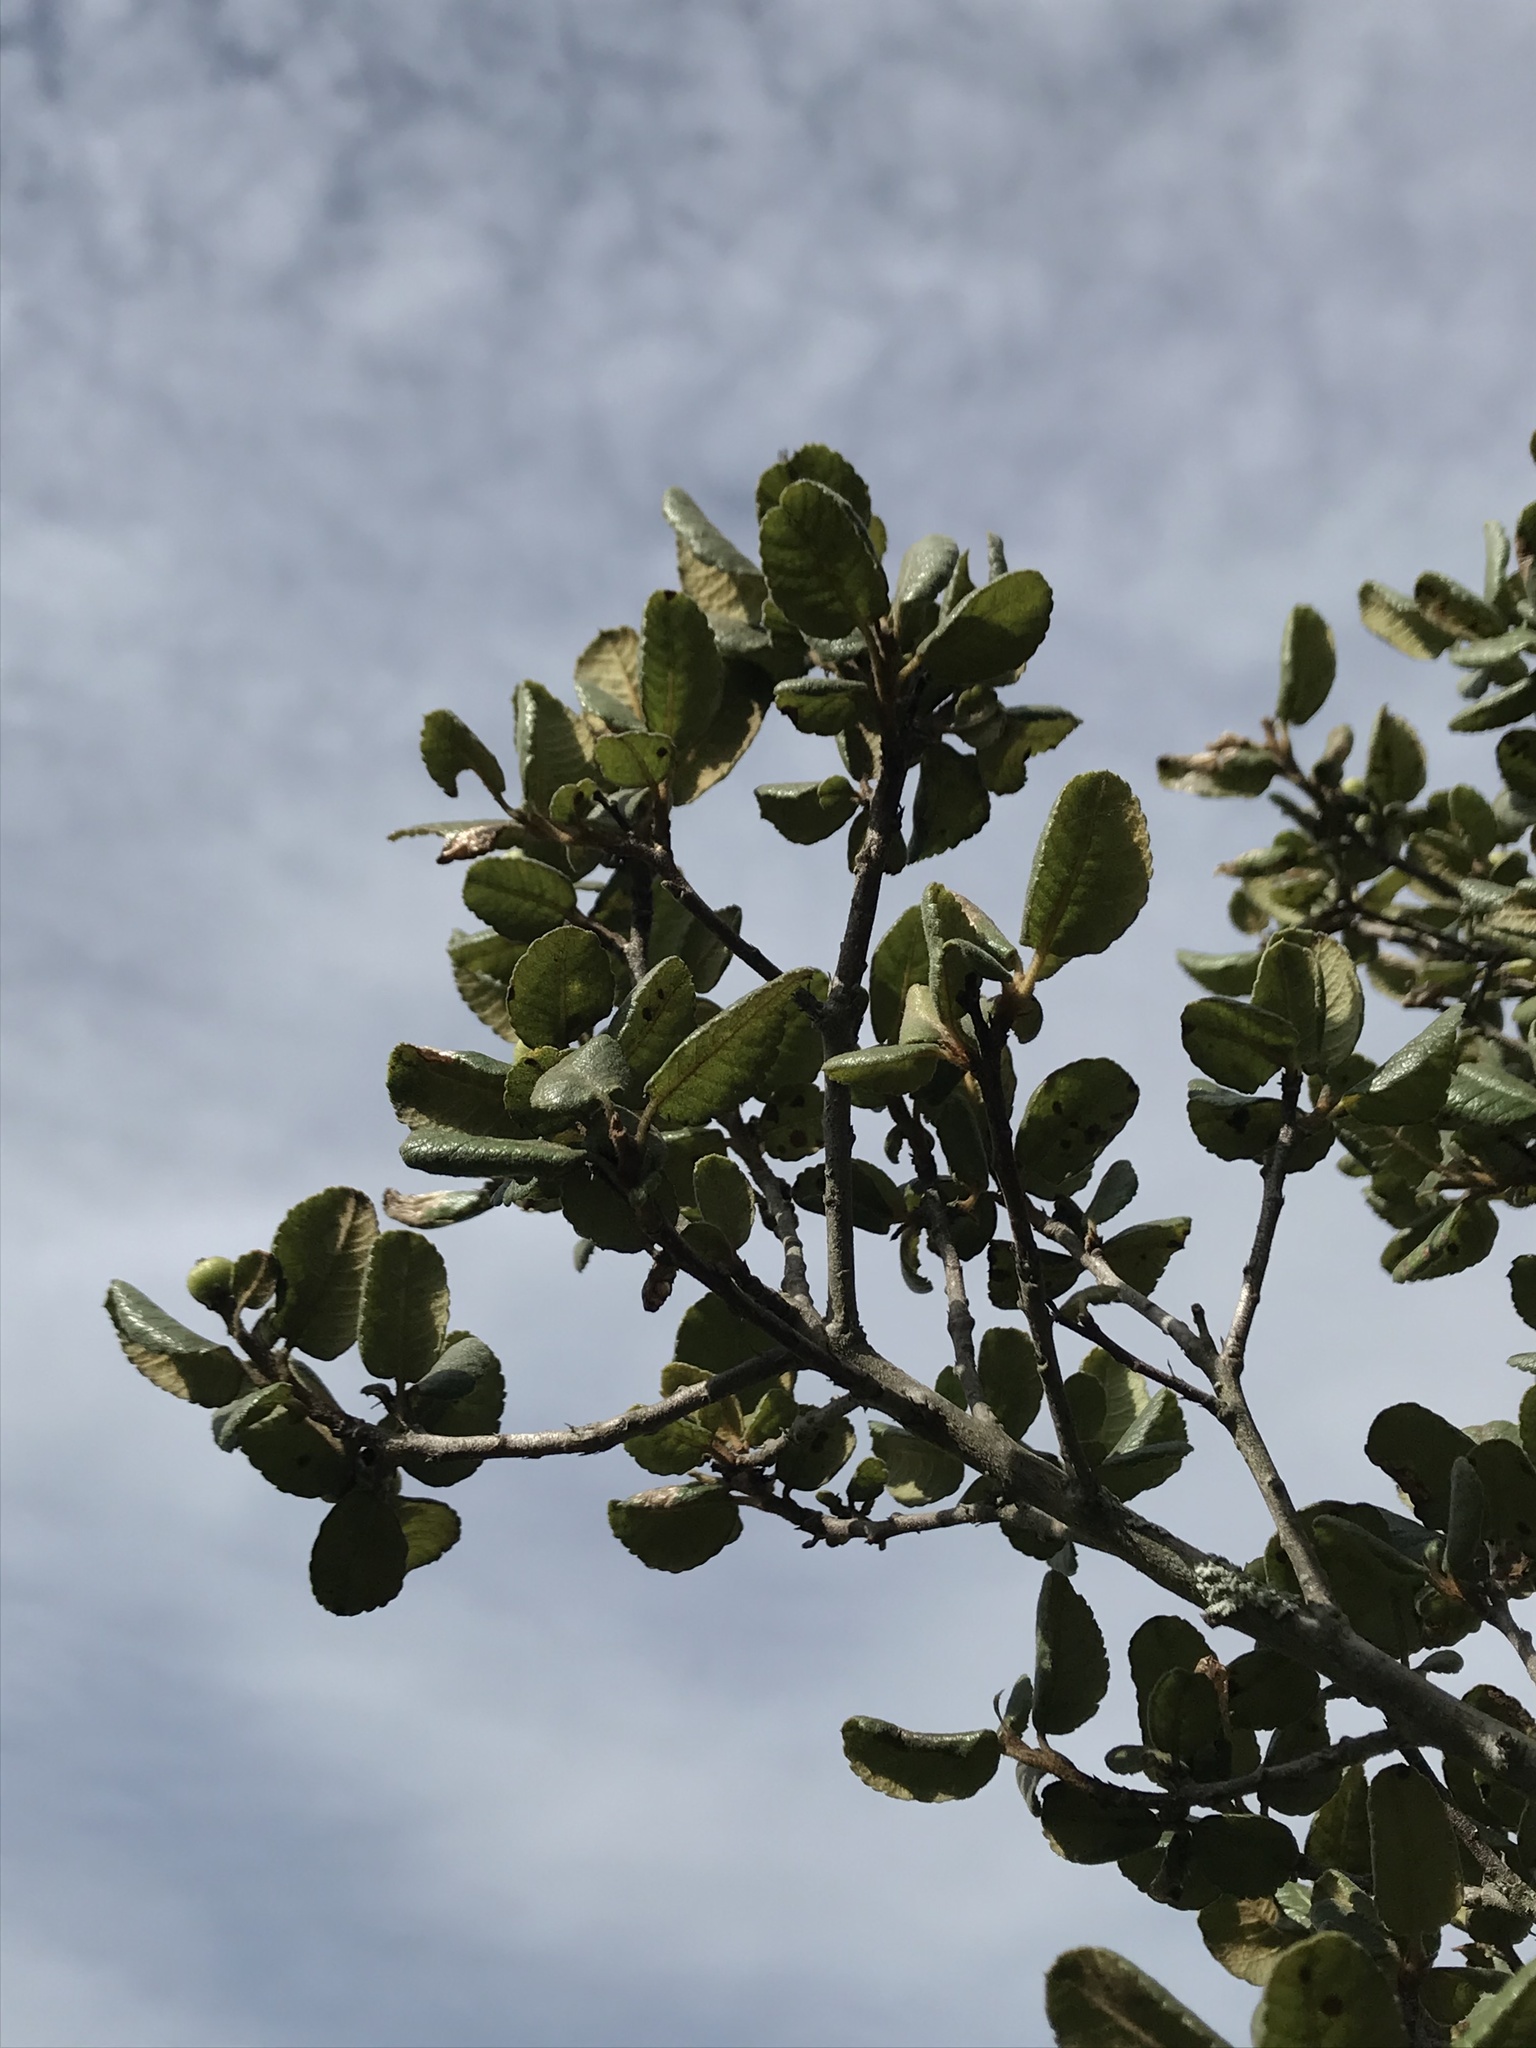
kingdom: Plantae
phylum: Tracheophyta
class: Magnoliopsida
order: Rosales
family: Rosaceae
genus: Hesperomeles
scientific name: Hesperomeles goudotiana
